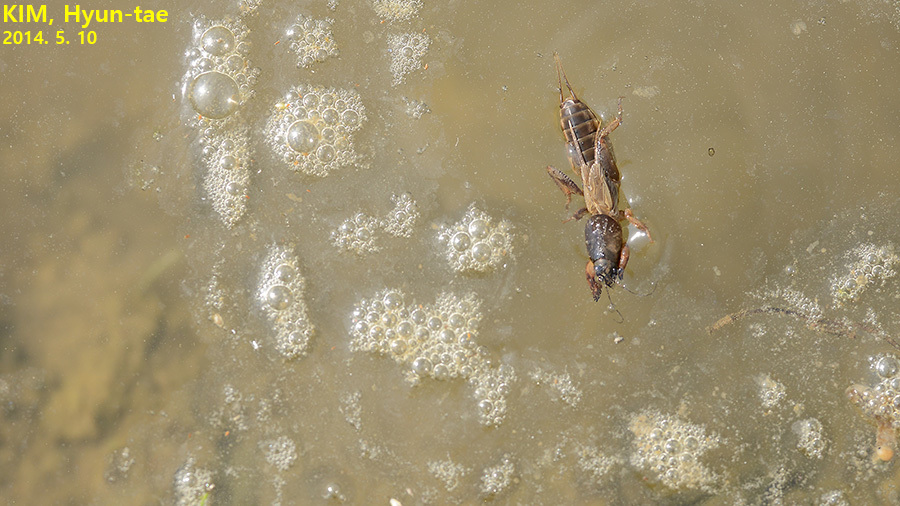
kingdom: Animalia
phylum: Arthropoda
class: Insecta
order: Orthoptera
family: Gryllotalpidae
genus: Gryllotalpa
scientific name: Gryllotalpa orientalis
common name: Grasshopper
